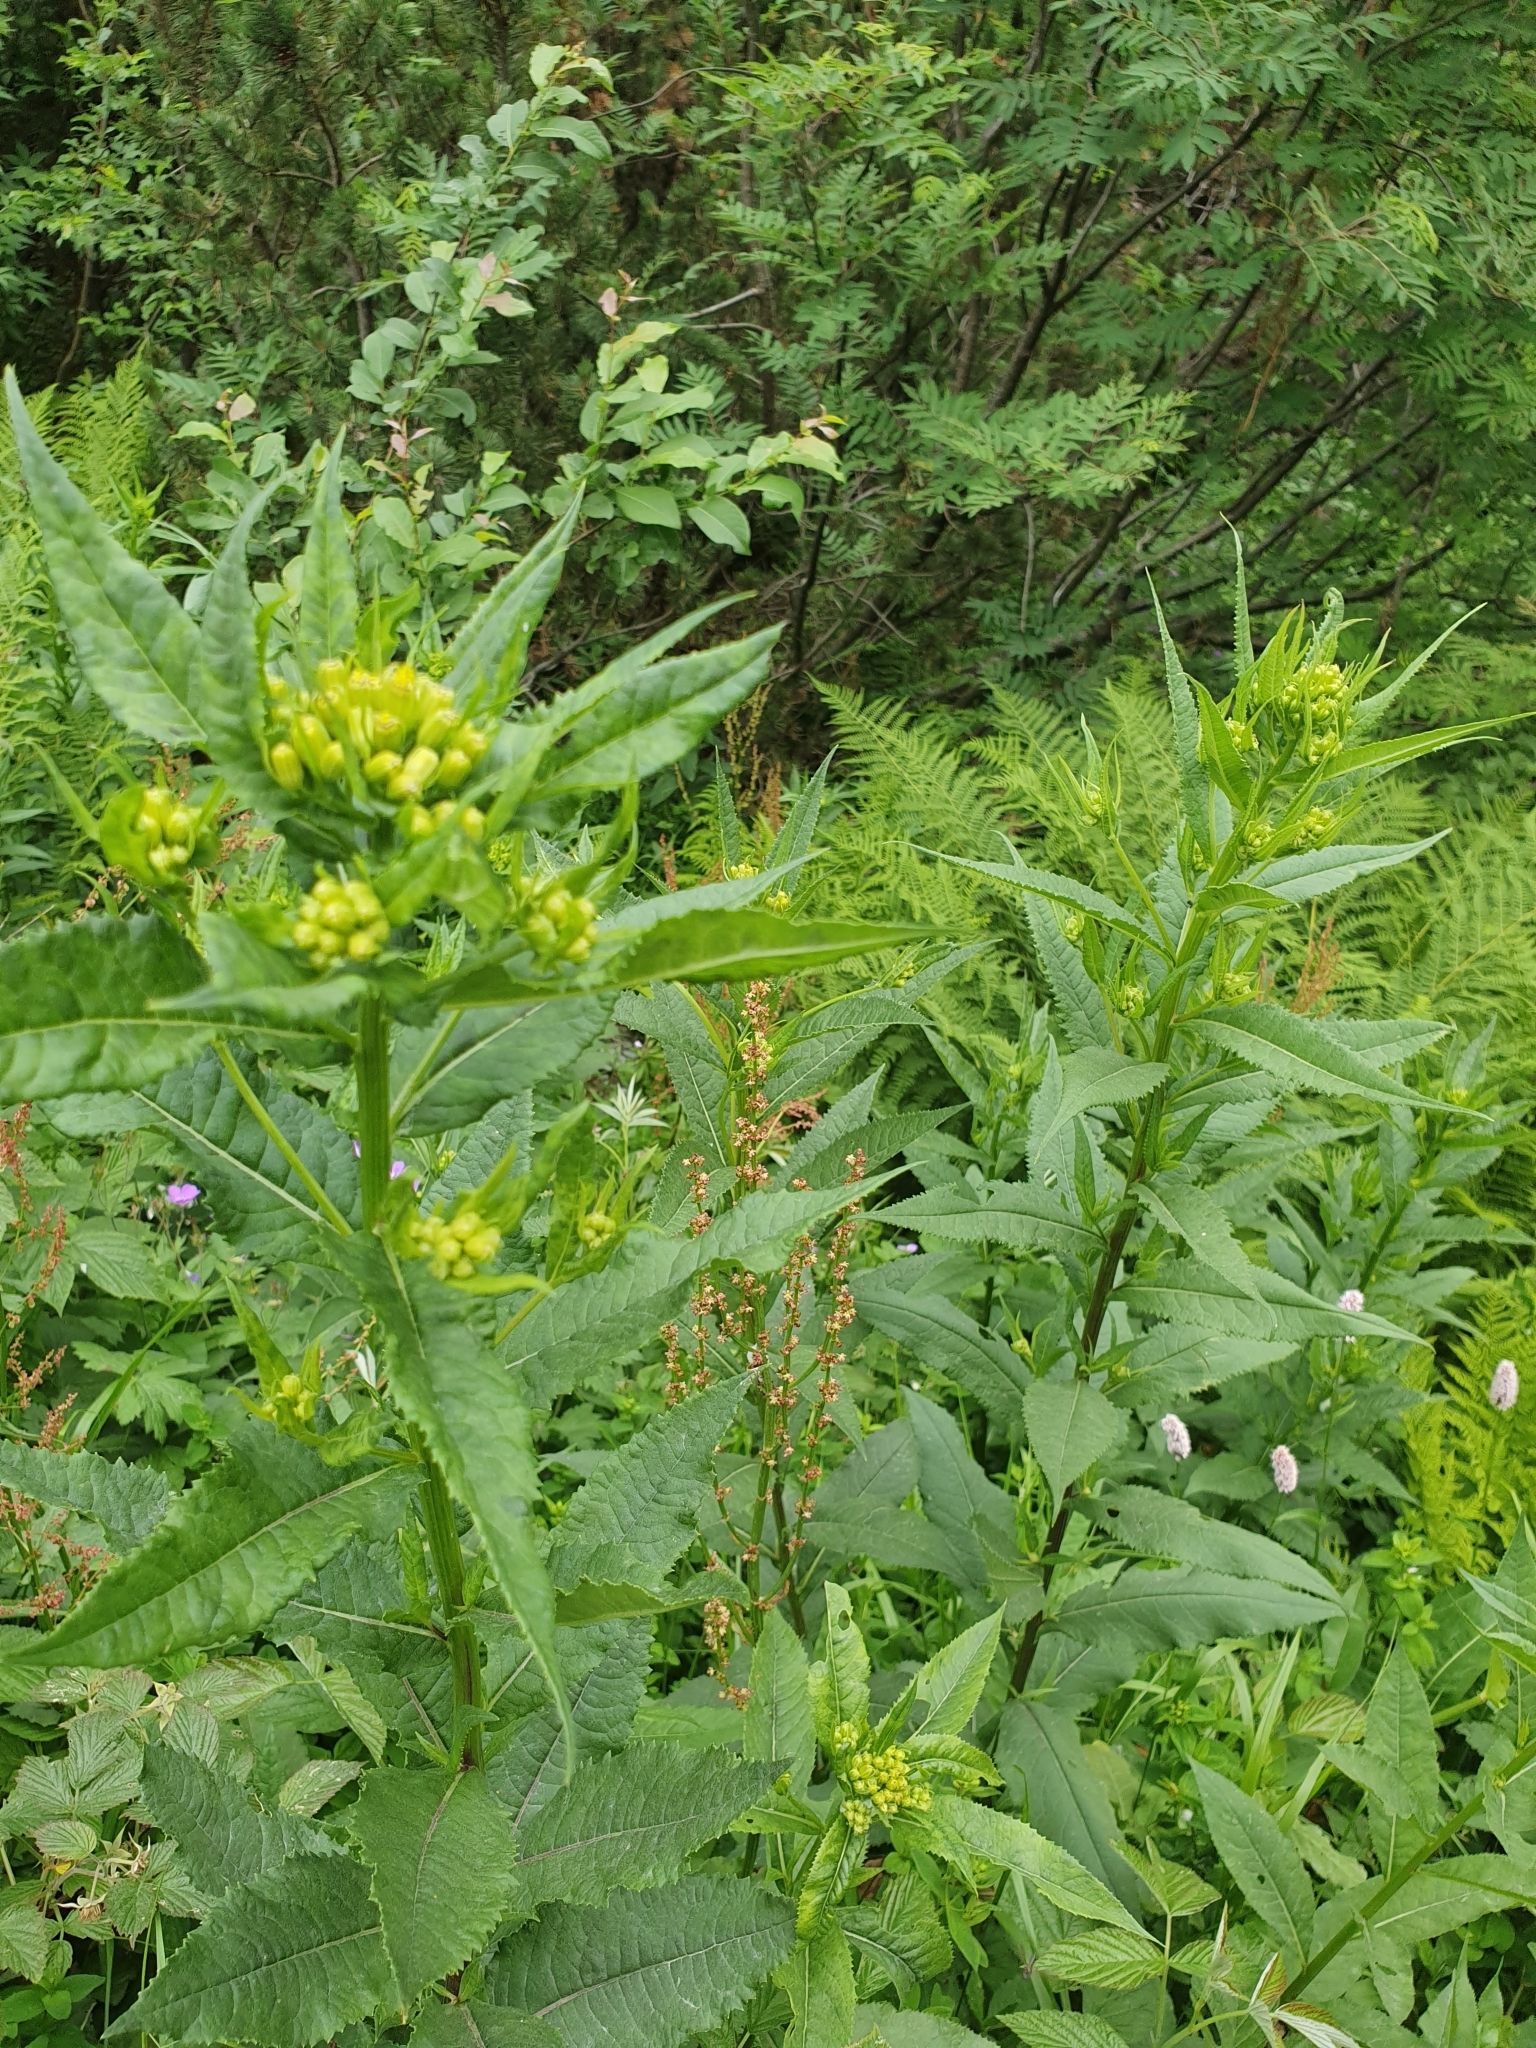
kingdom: Plantae
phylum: Tracheophyta
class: Magnoliopsida
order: Asterales
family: Asteraceae
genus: Senecio
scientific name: Senecio ovatus
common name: Wood ragwort
